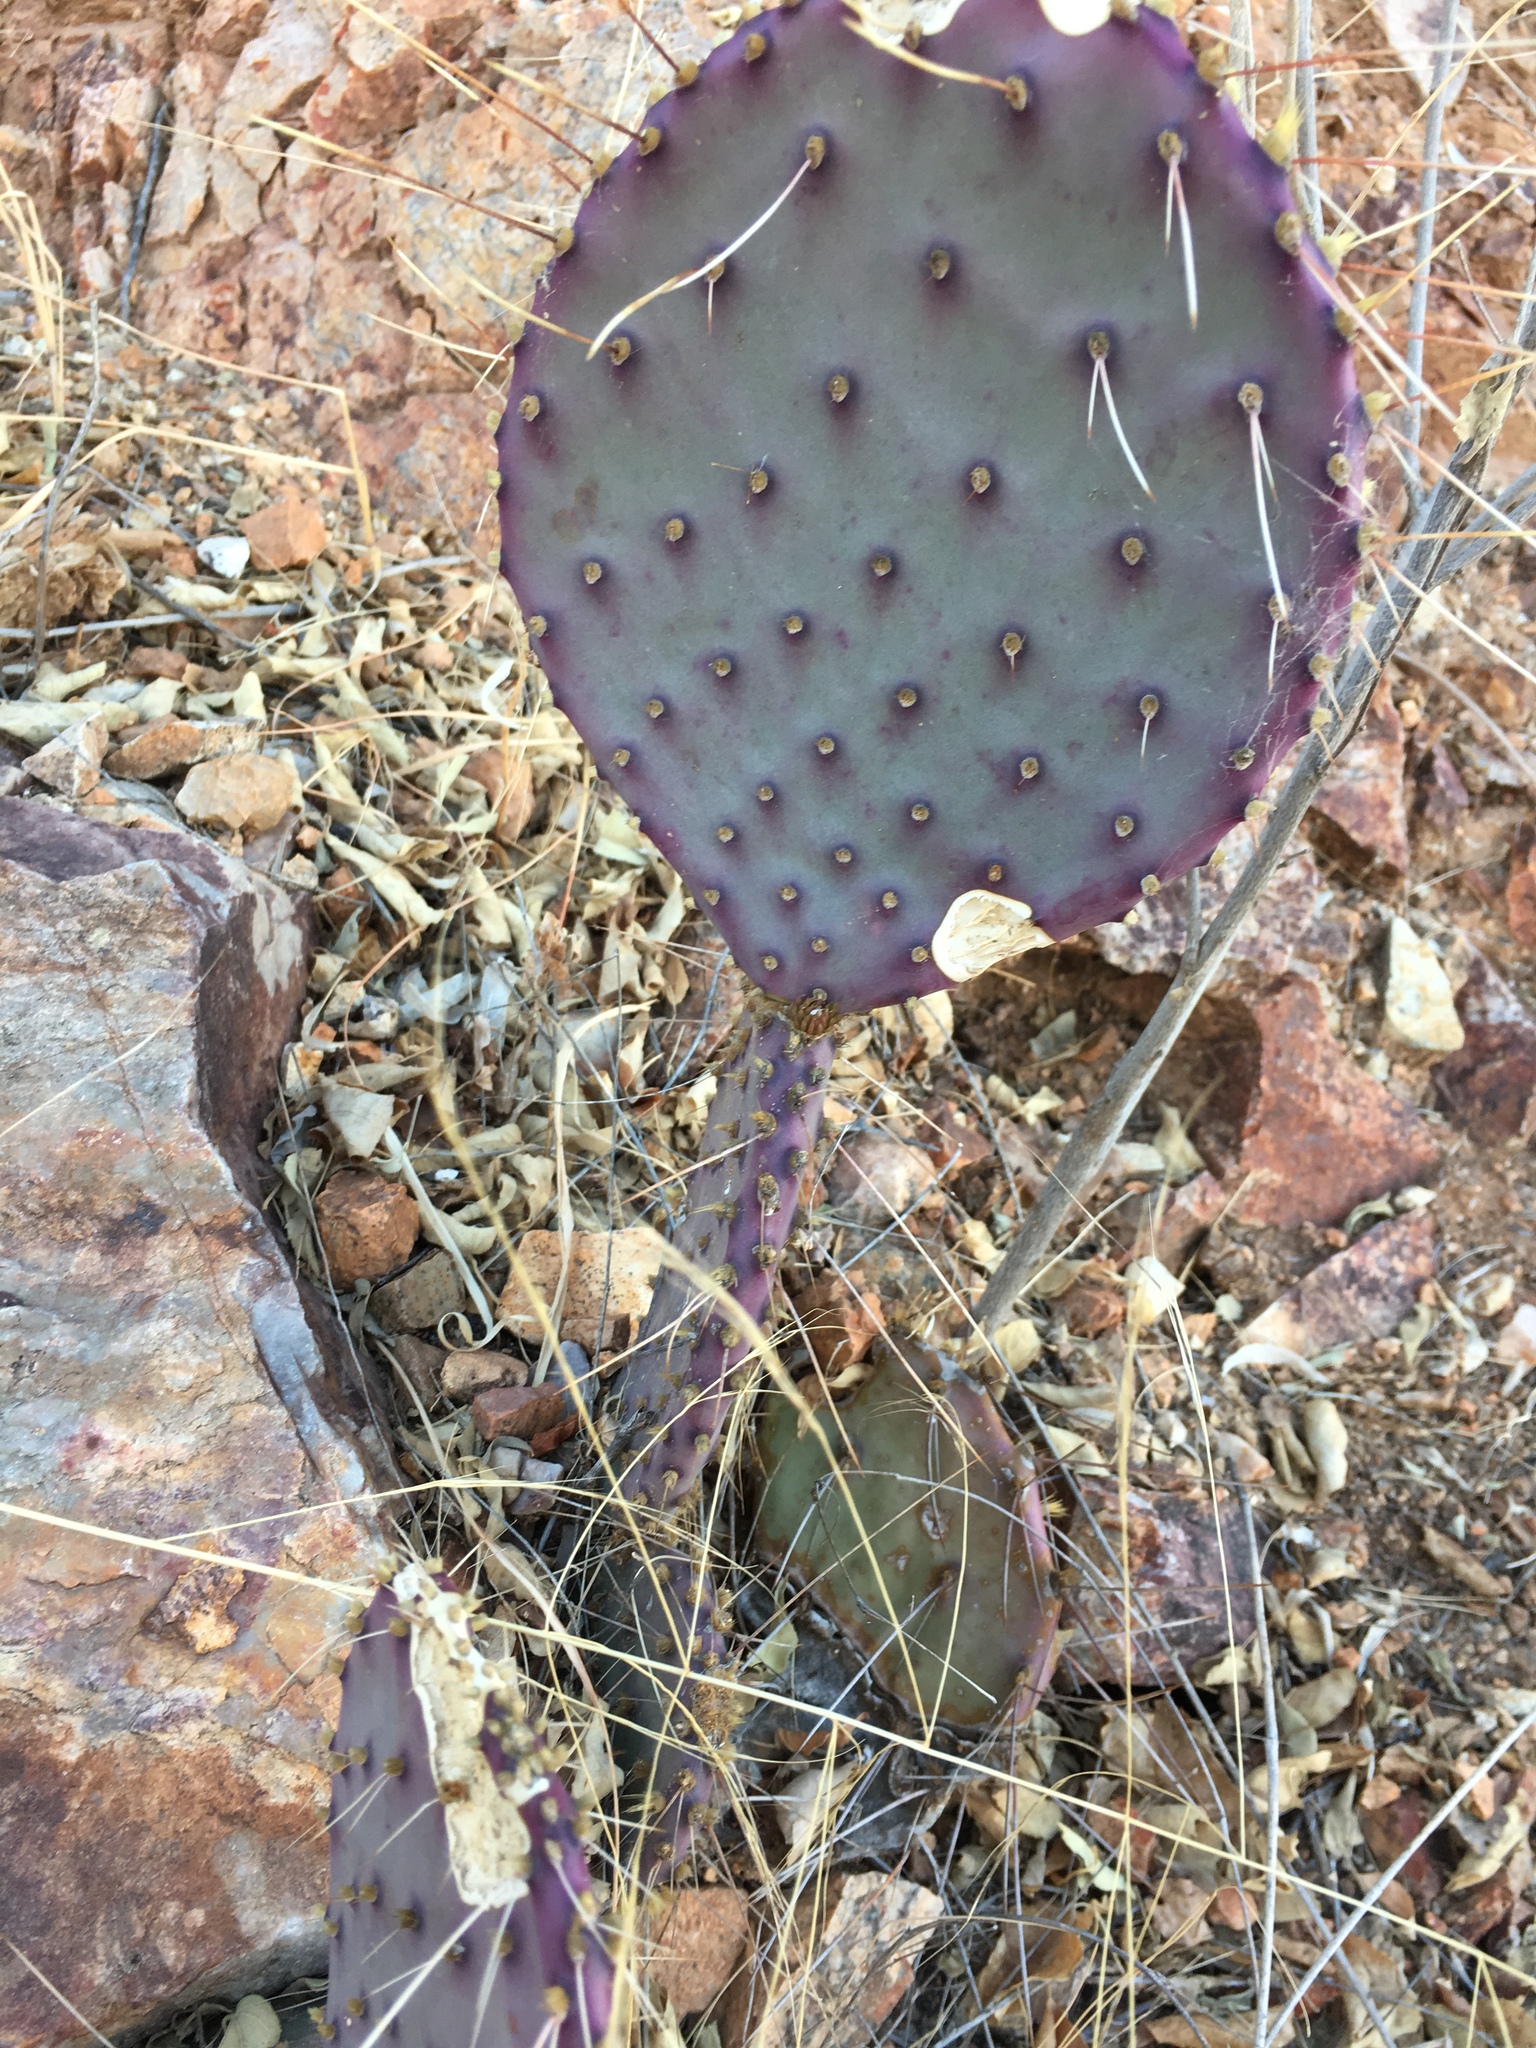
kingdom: Plantae
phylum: Tracheophyta
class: Magnoliopsida
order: Caryophyllales
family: Cactaceae
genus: Opuntia
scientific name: Opuntia gosseliniana
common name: Violet prickly-pear
